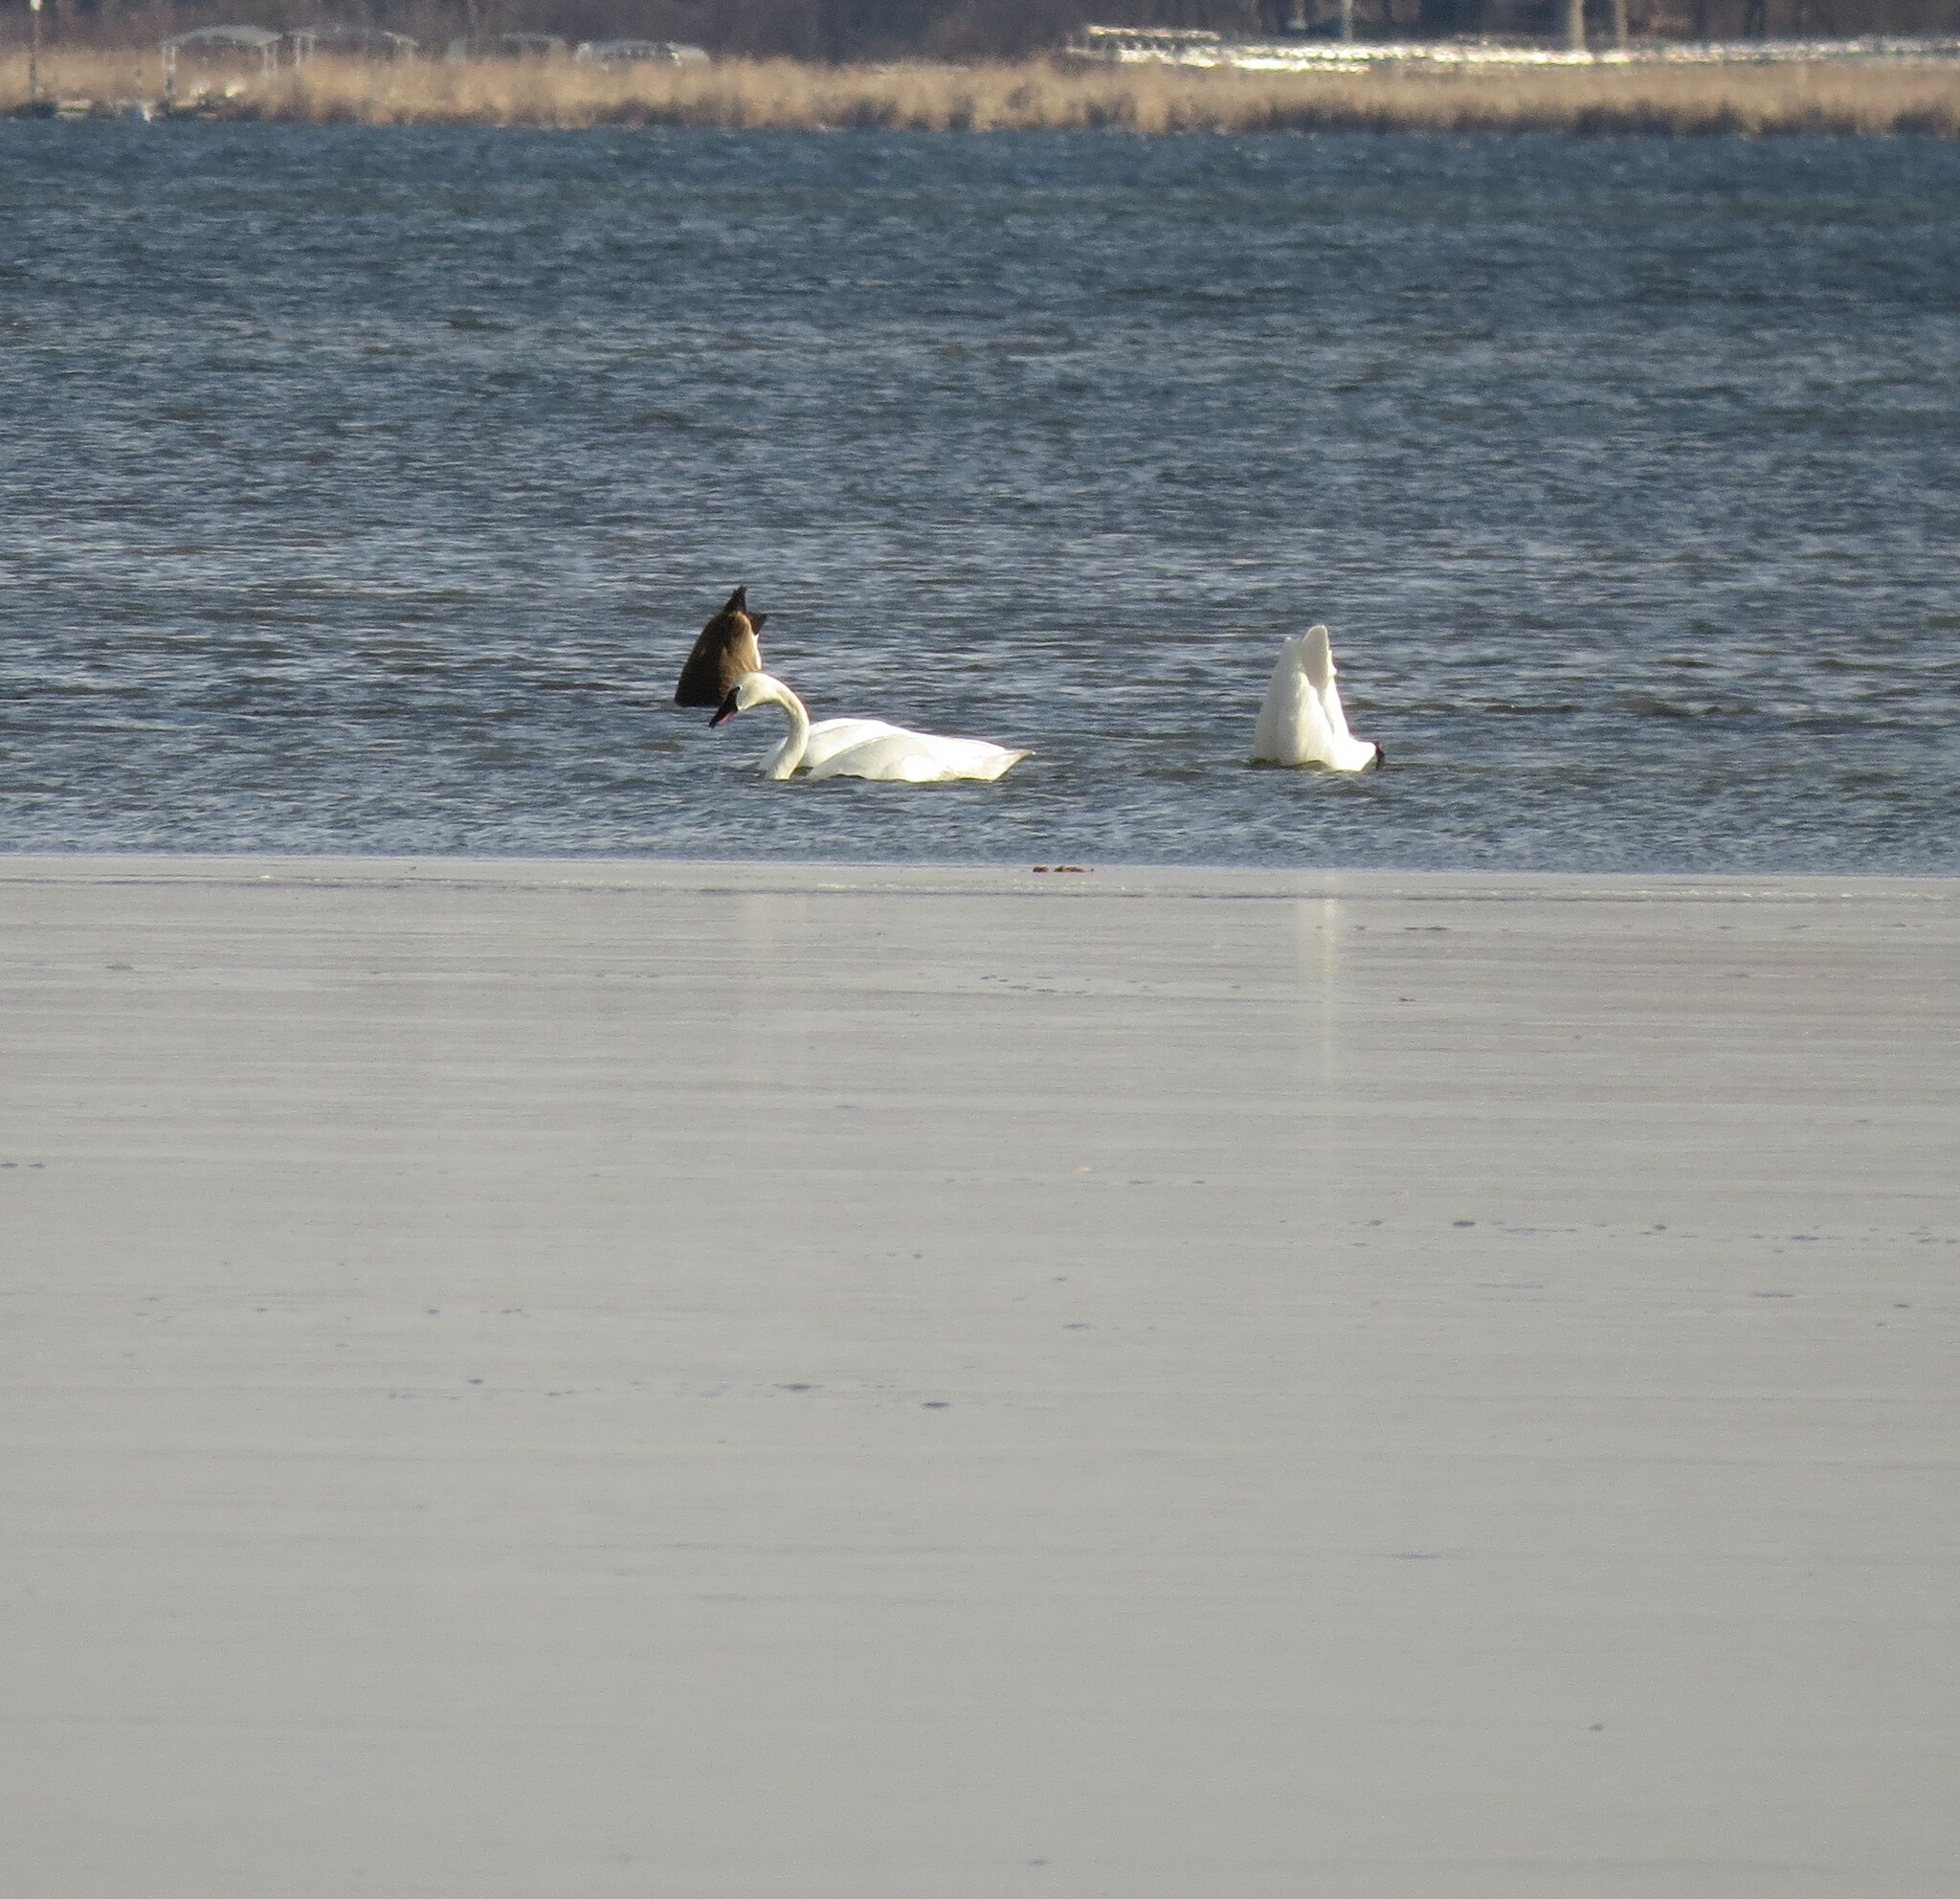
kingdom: Animalia
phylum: Chordata
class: Aves
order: Anseriformes
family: Anatidae
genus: Cygnus
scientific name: Cygnus columbianus
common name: Tundra swan
